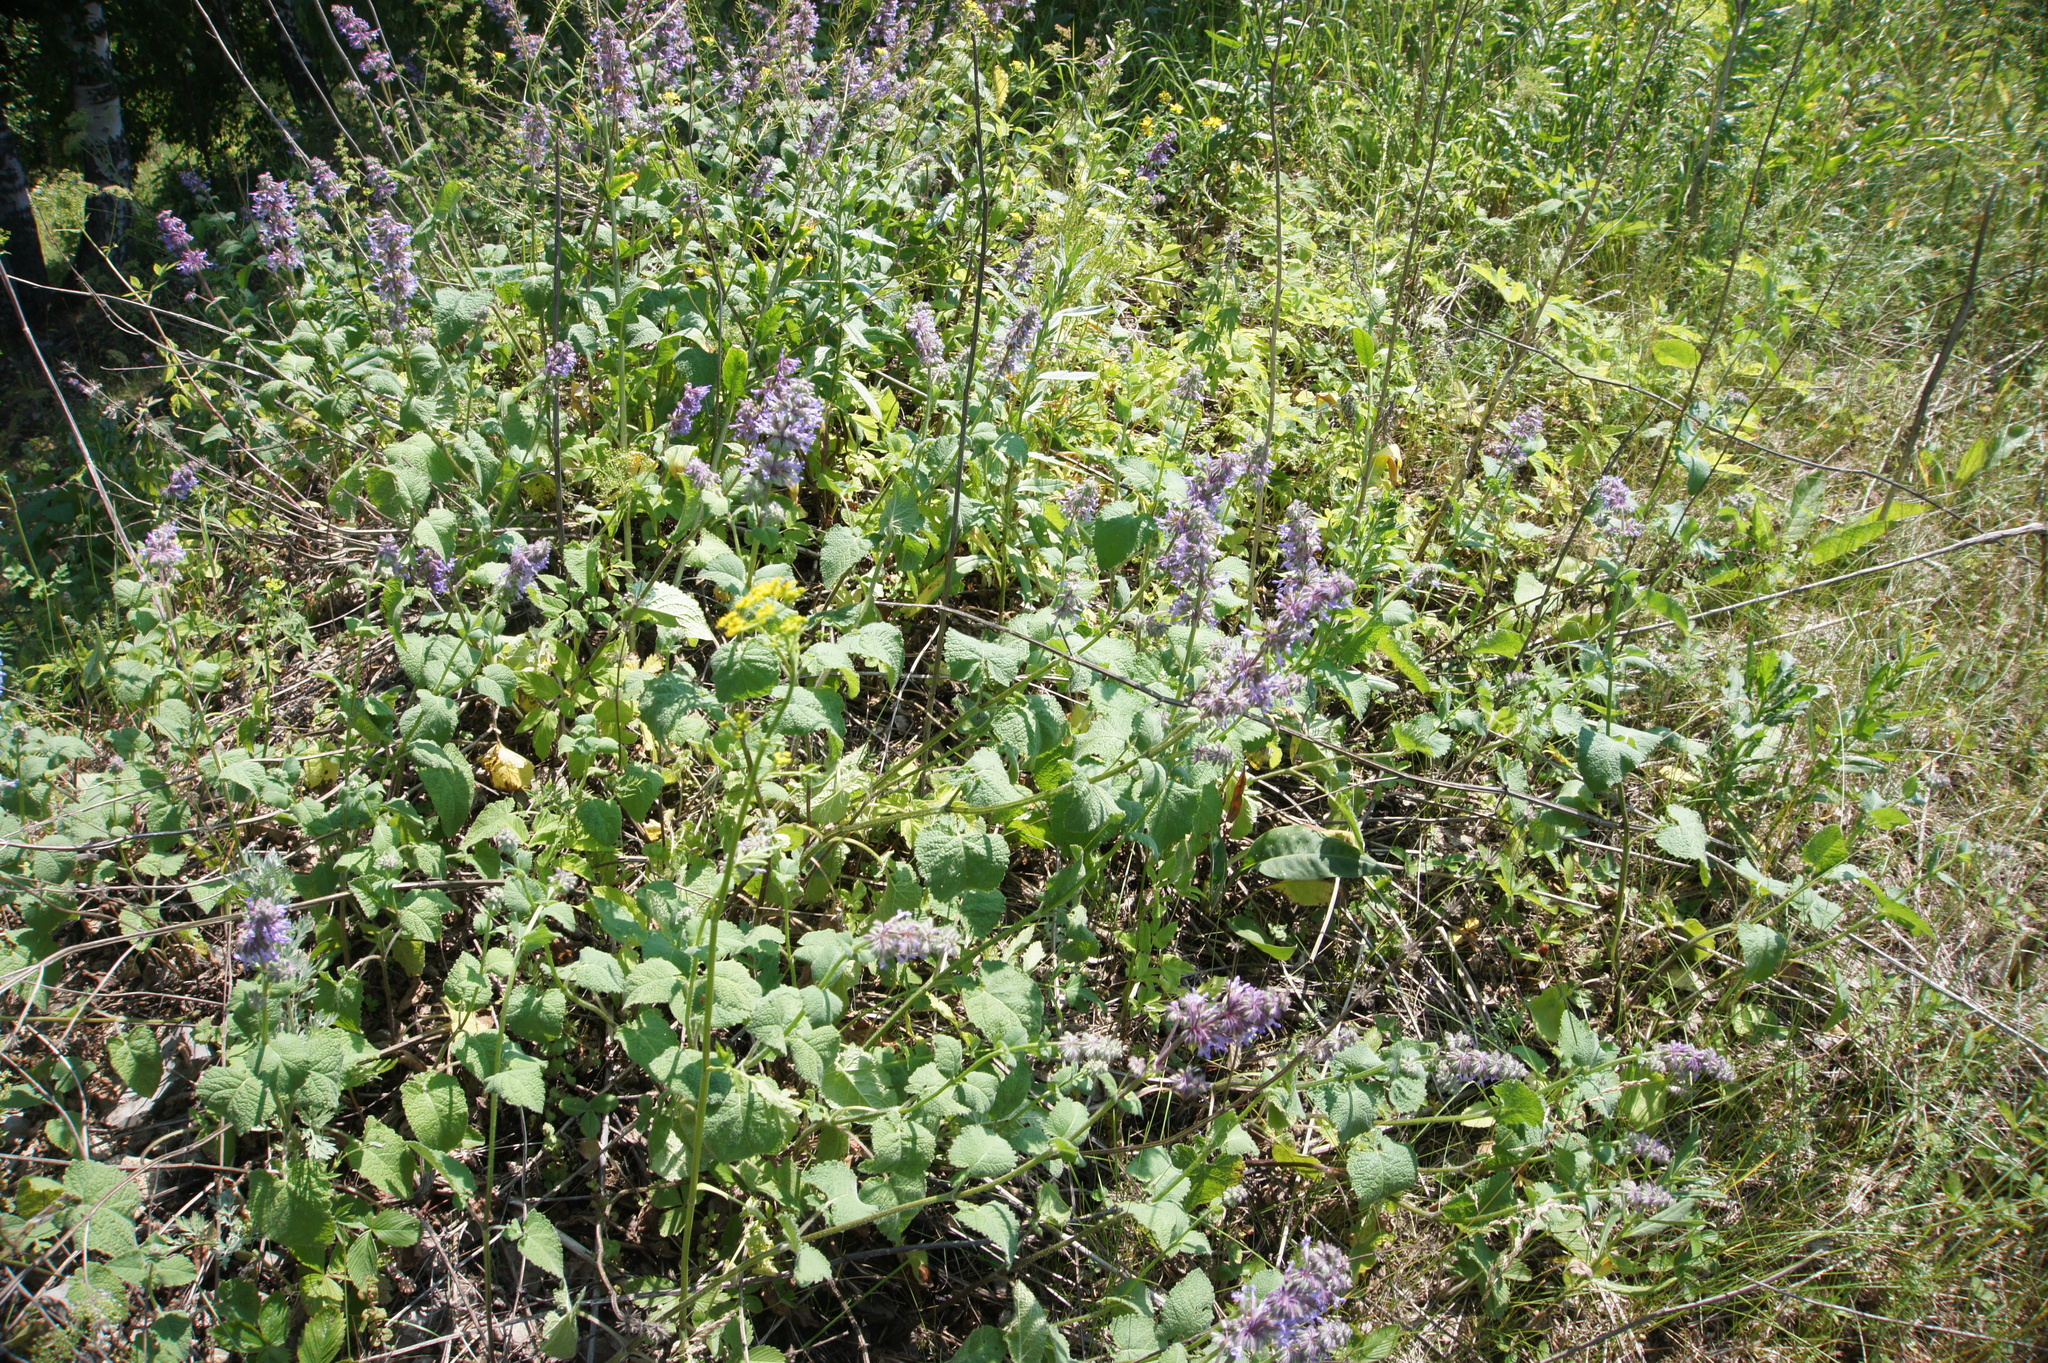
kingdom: Plantae
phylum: Tracheophyta
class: Magnoliopsida
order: Lamiales
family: Lamiaceae
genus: Salvia
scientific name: Salvia verticillata
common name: Whorled clary
